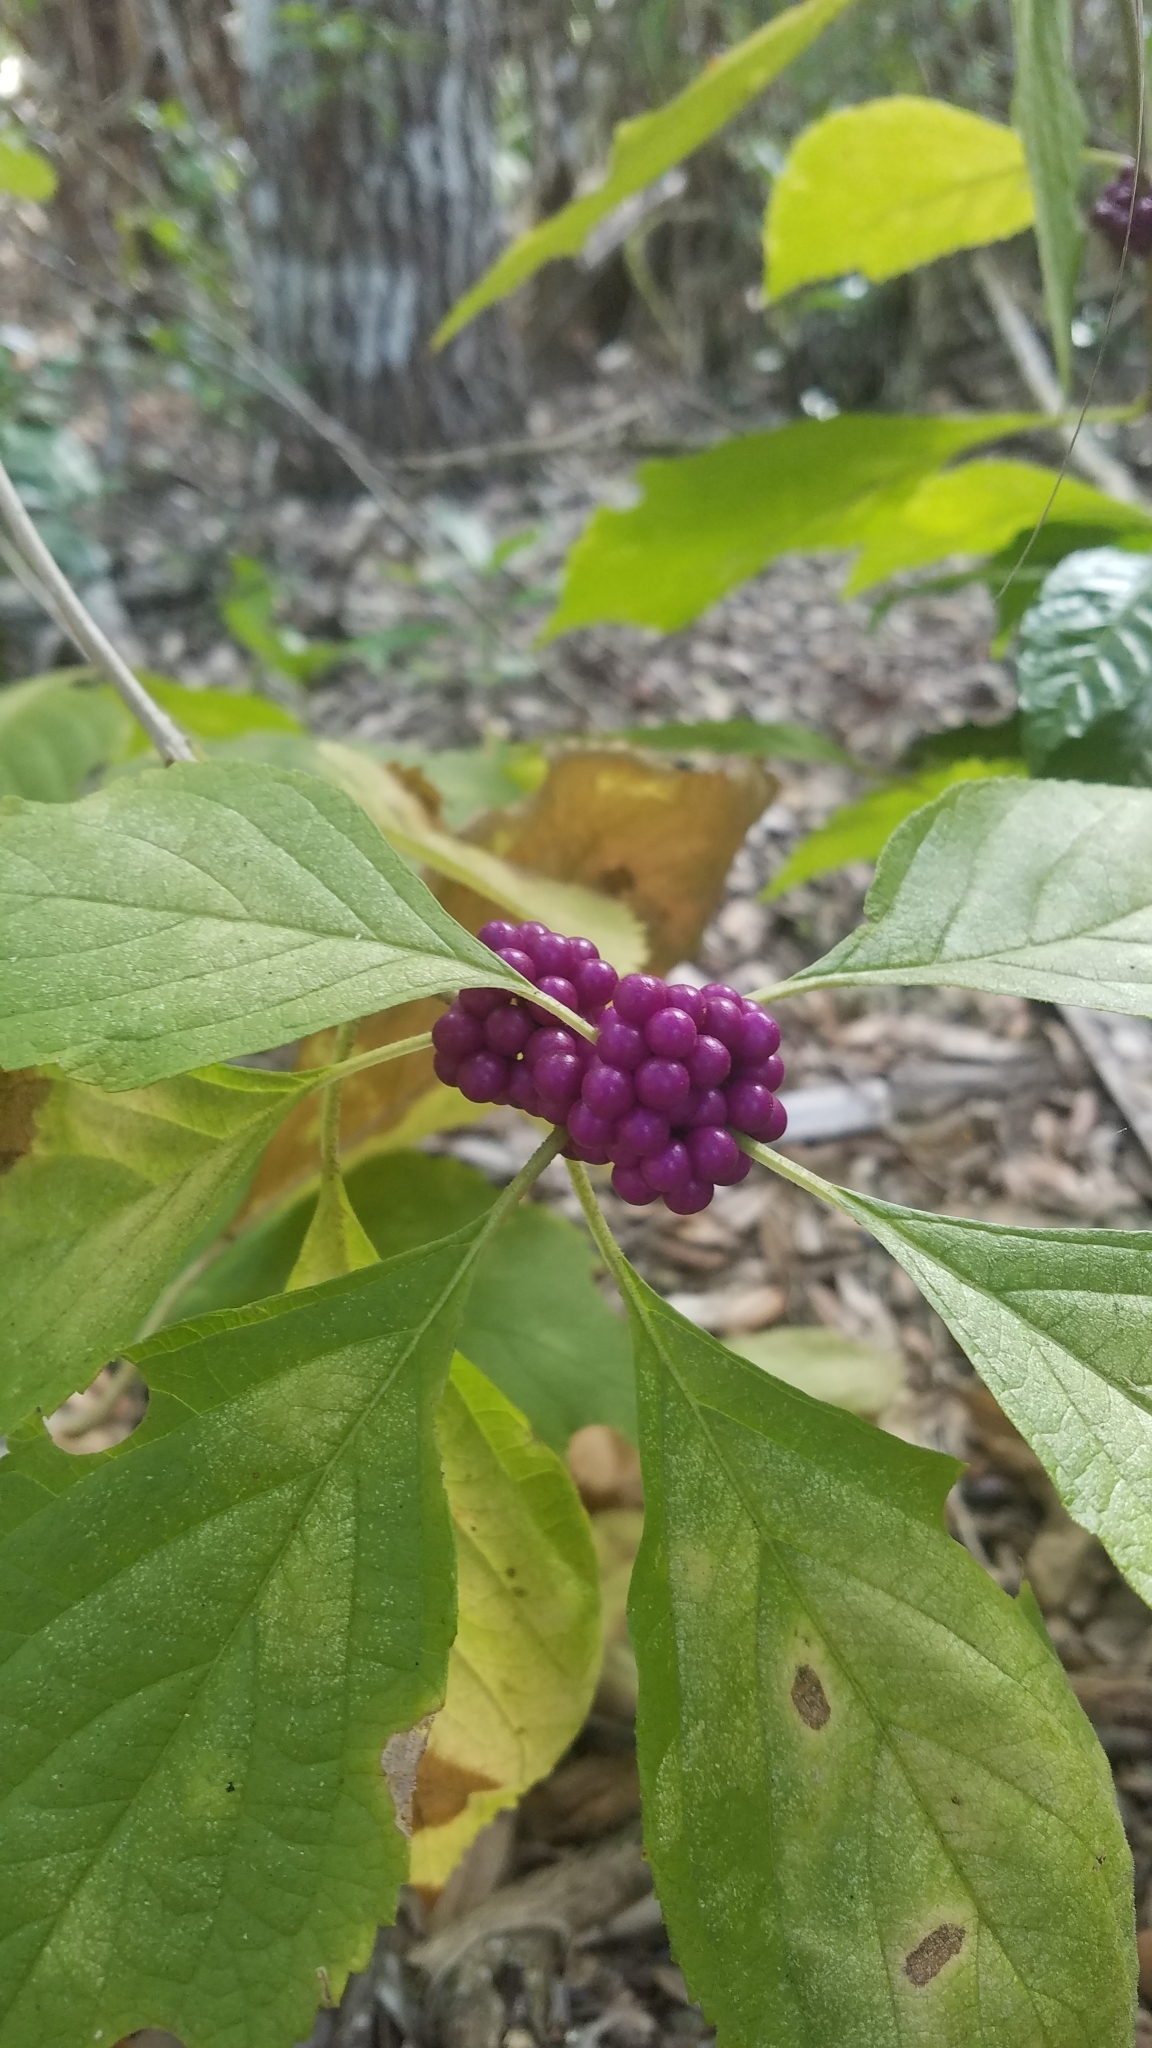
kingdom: Plantae
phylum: Tracheophyta
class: Magnoliopsida
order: Lamiales
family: Lamiaceae
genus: Callicarpa
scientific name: Callicarpa americana
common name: American beautyberry
